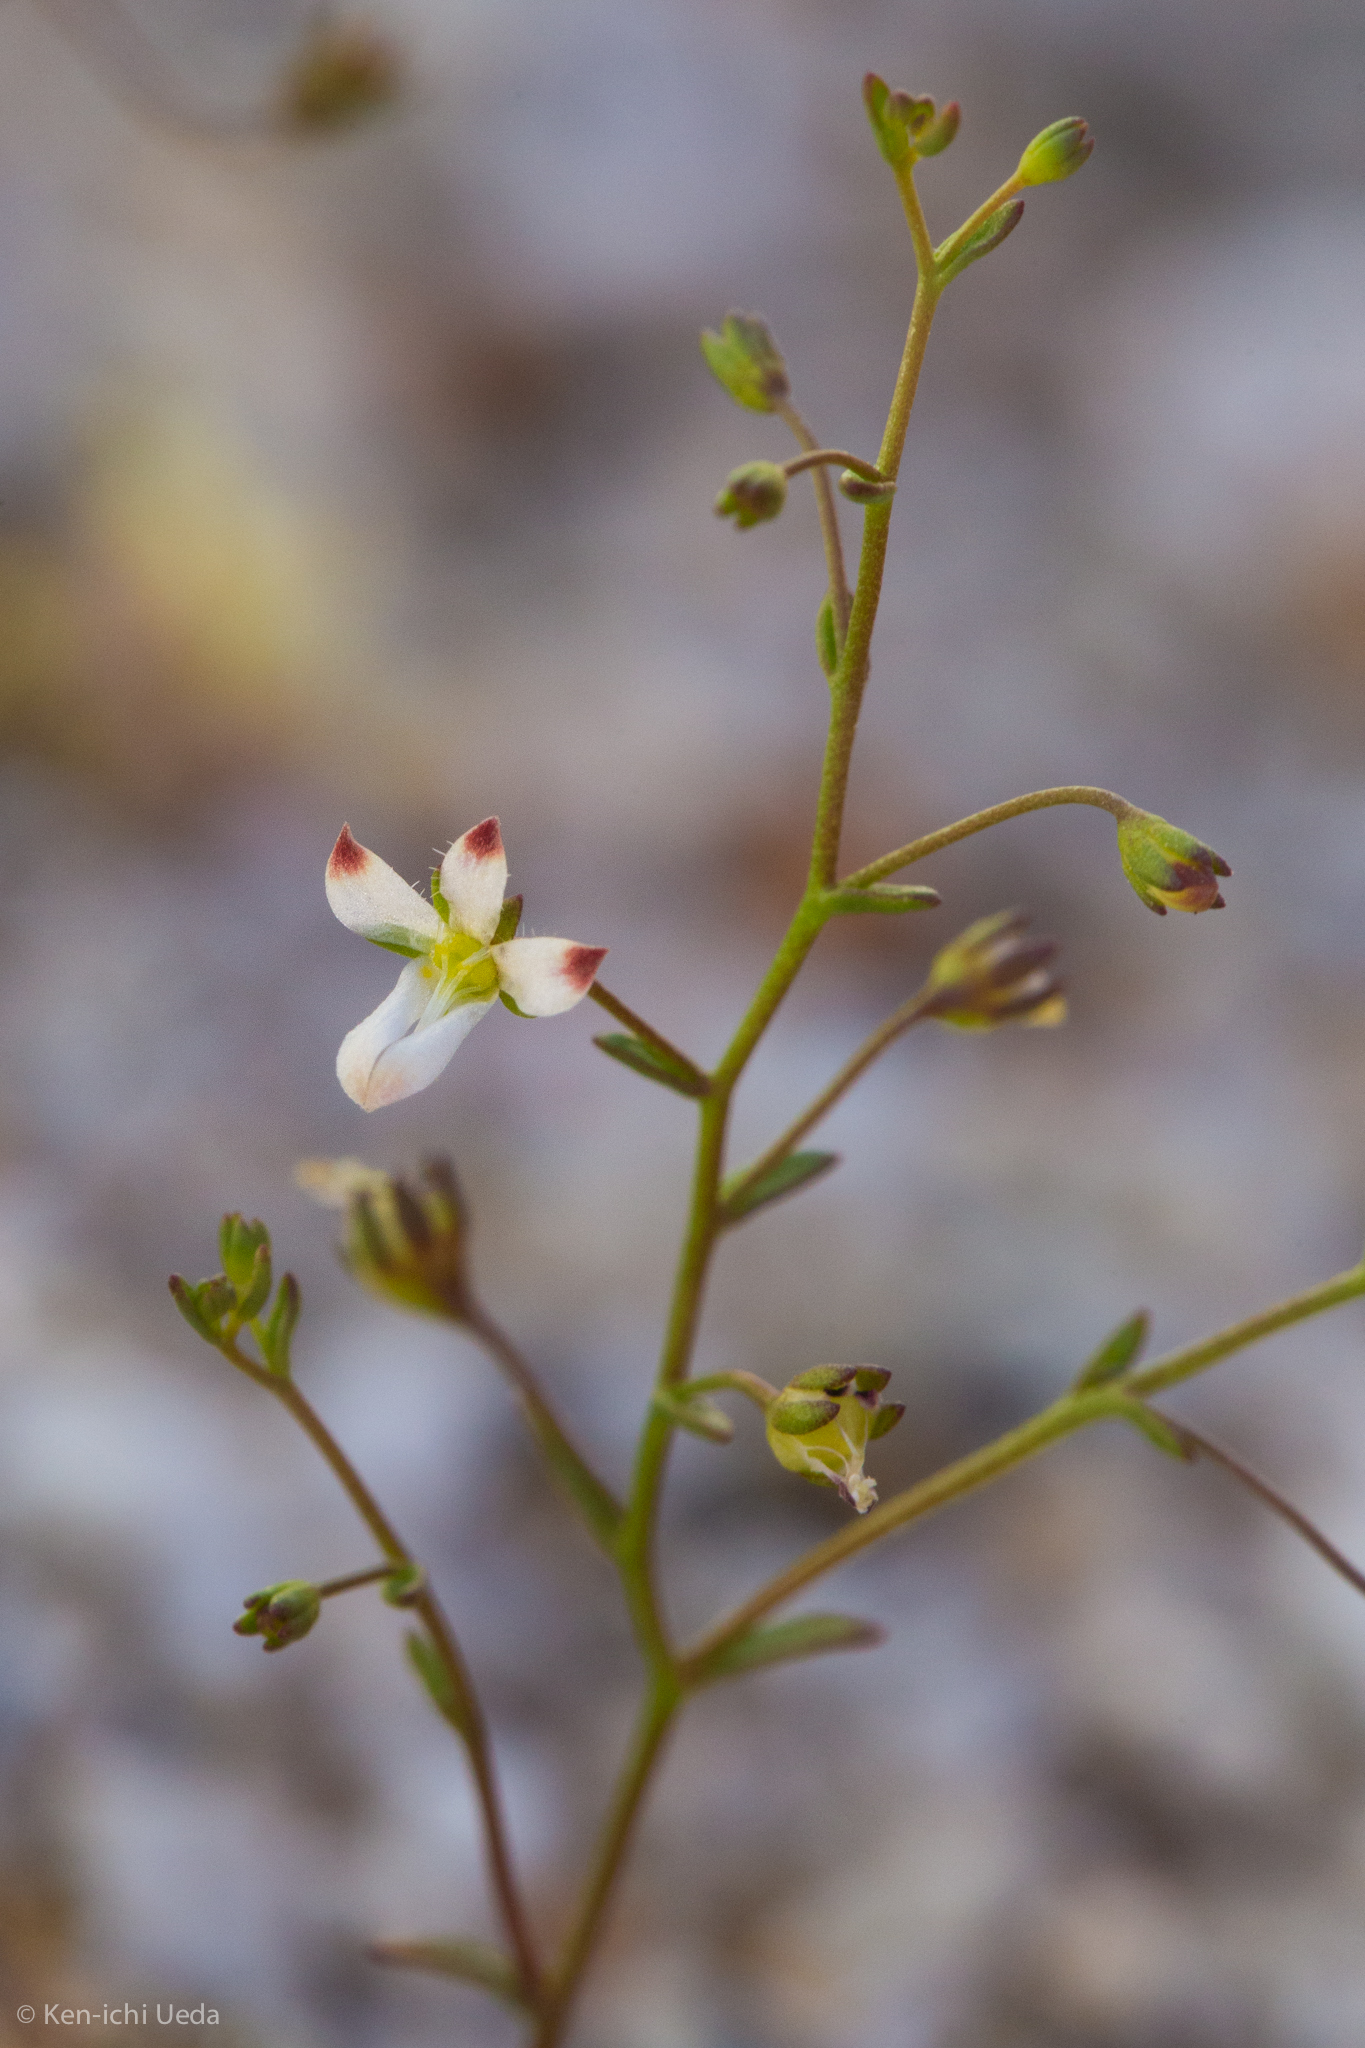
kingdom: Plantae
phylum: Tracheophyta
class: Magnoliopsida
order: Asterales
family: Campanulaceae
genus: Nemacladus
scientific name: Nemacladus orientalis
